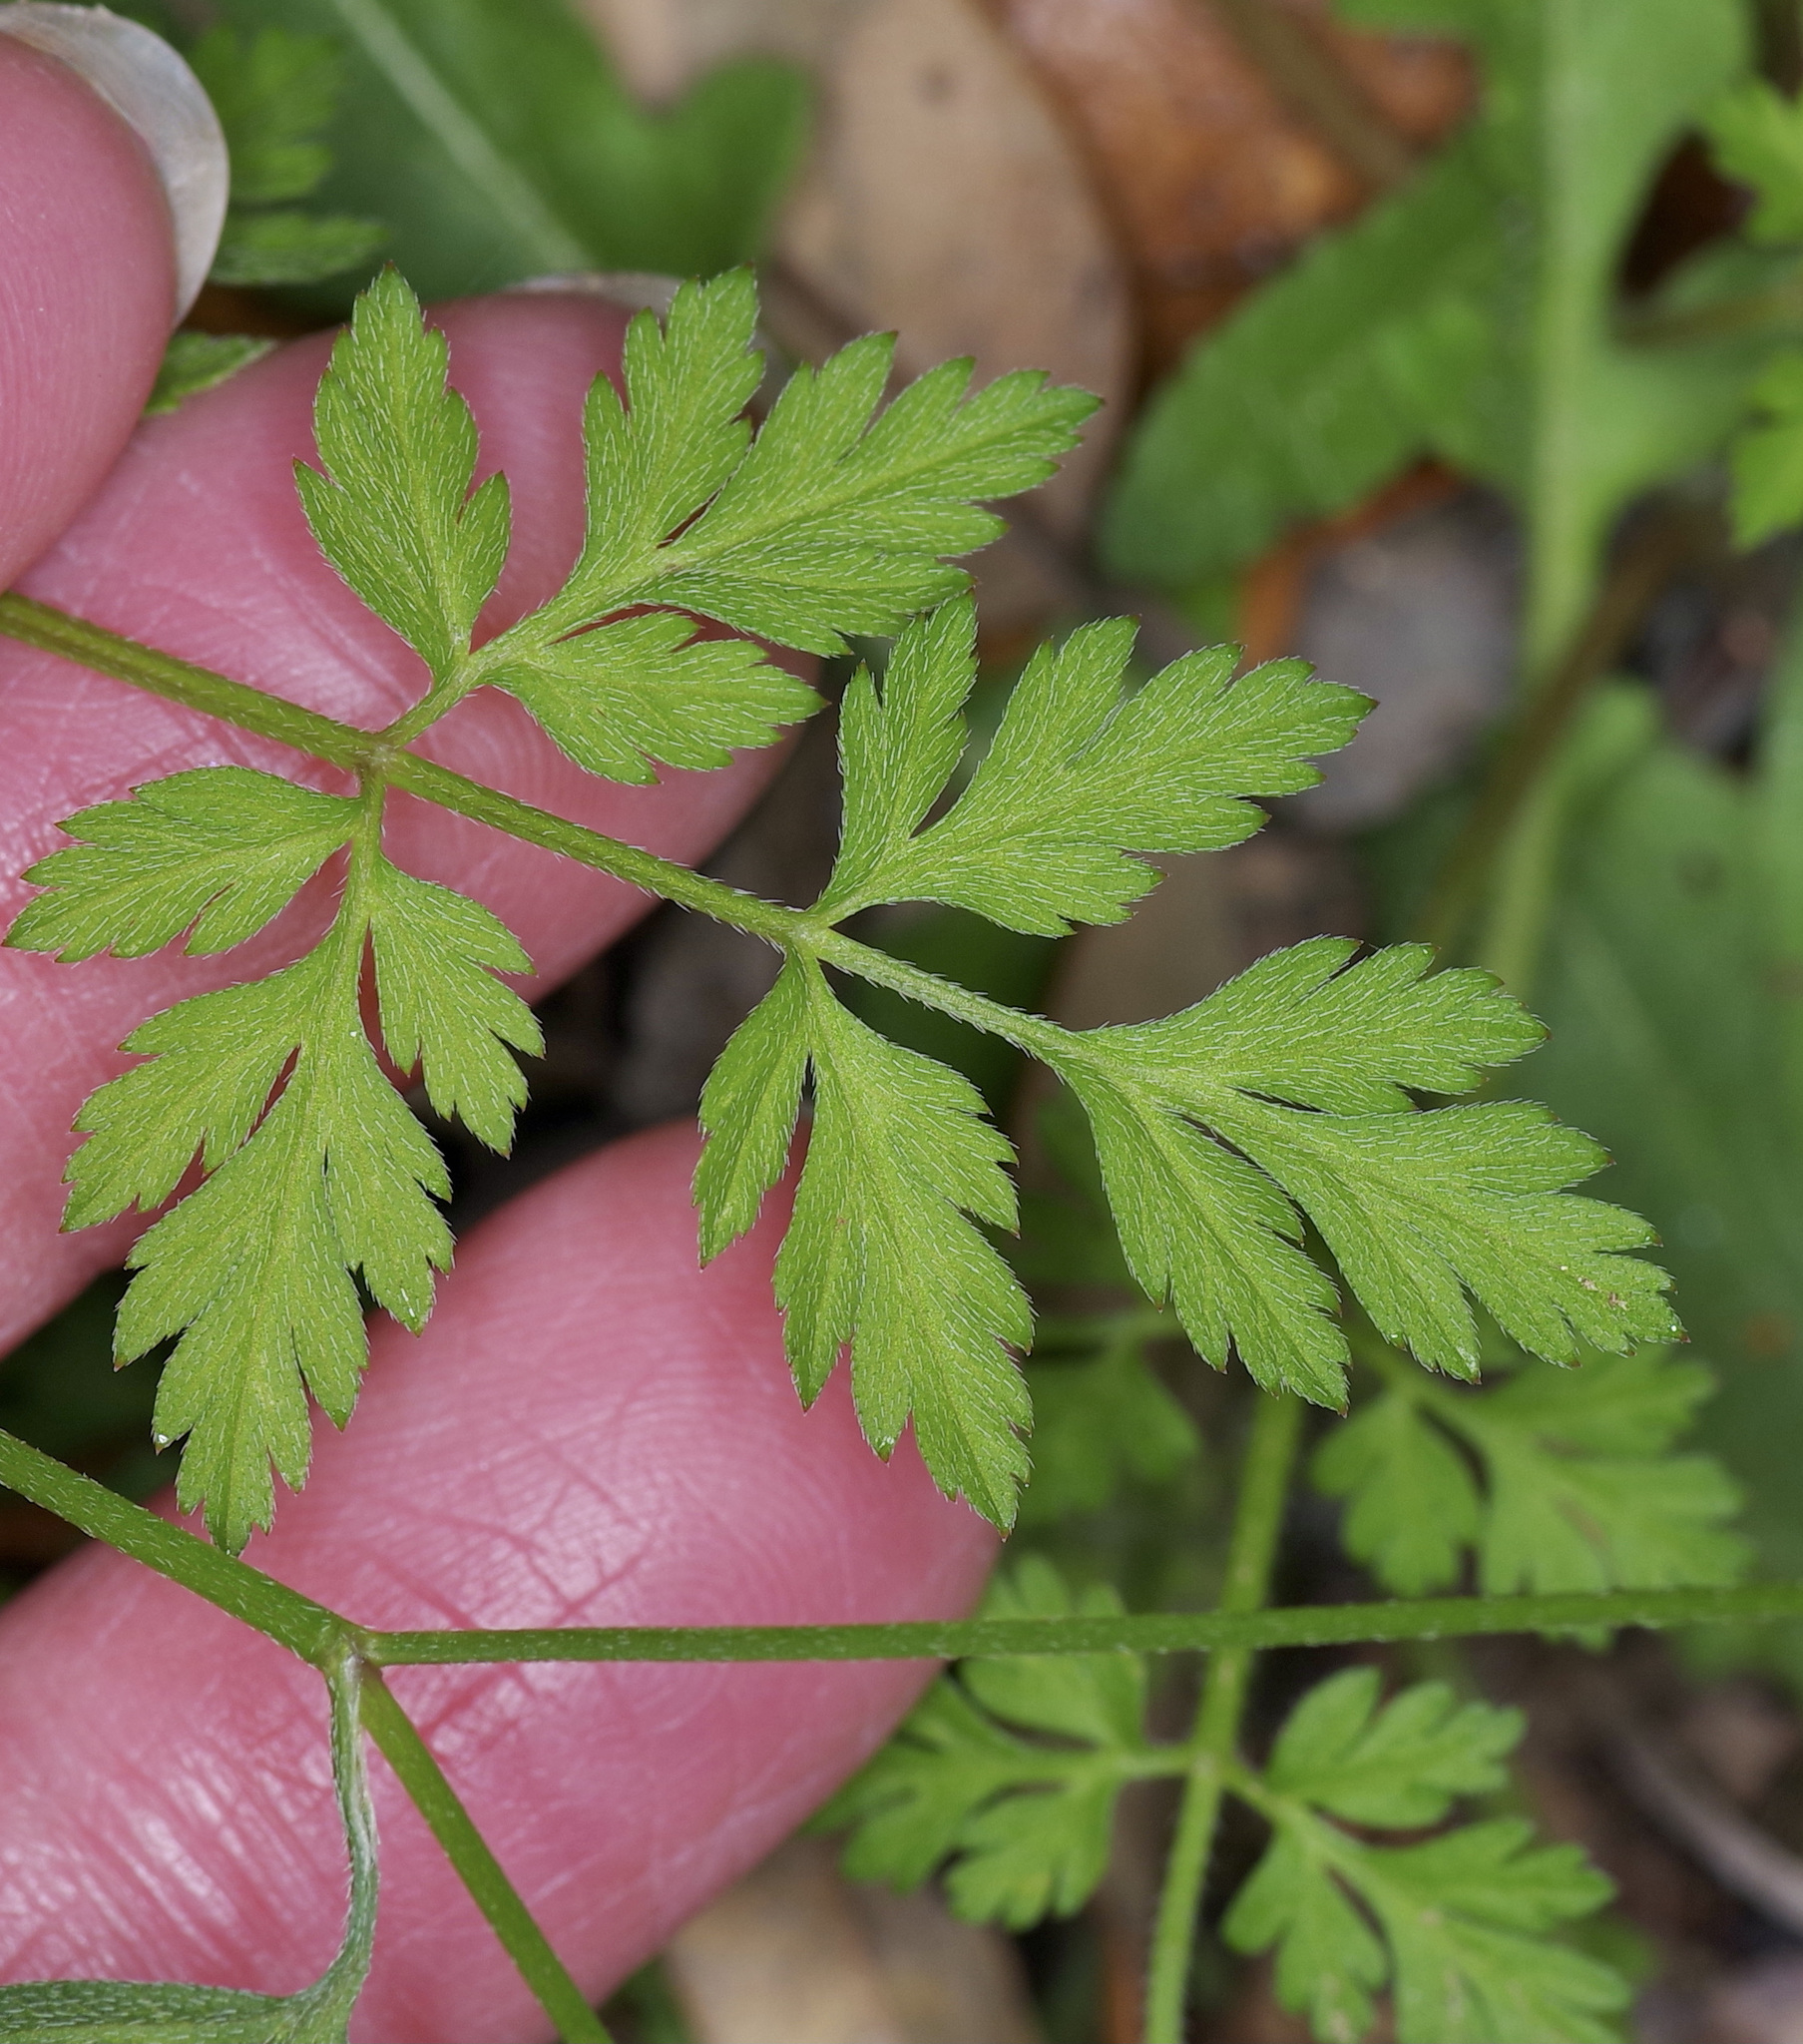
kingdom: Plantae
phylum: Tracheophyta
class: Magnoliopsida
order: Apiales
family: Apiaceae
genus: Torilis
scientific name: Torilis arvensis
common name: Spreading hedge-parsley
